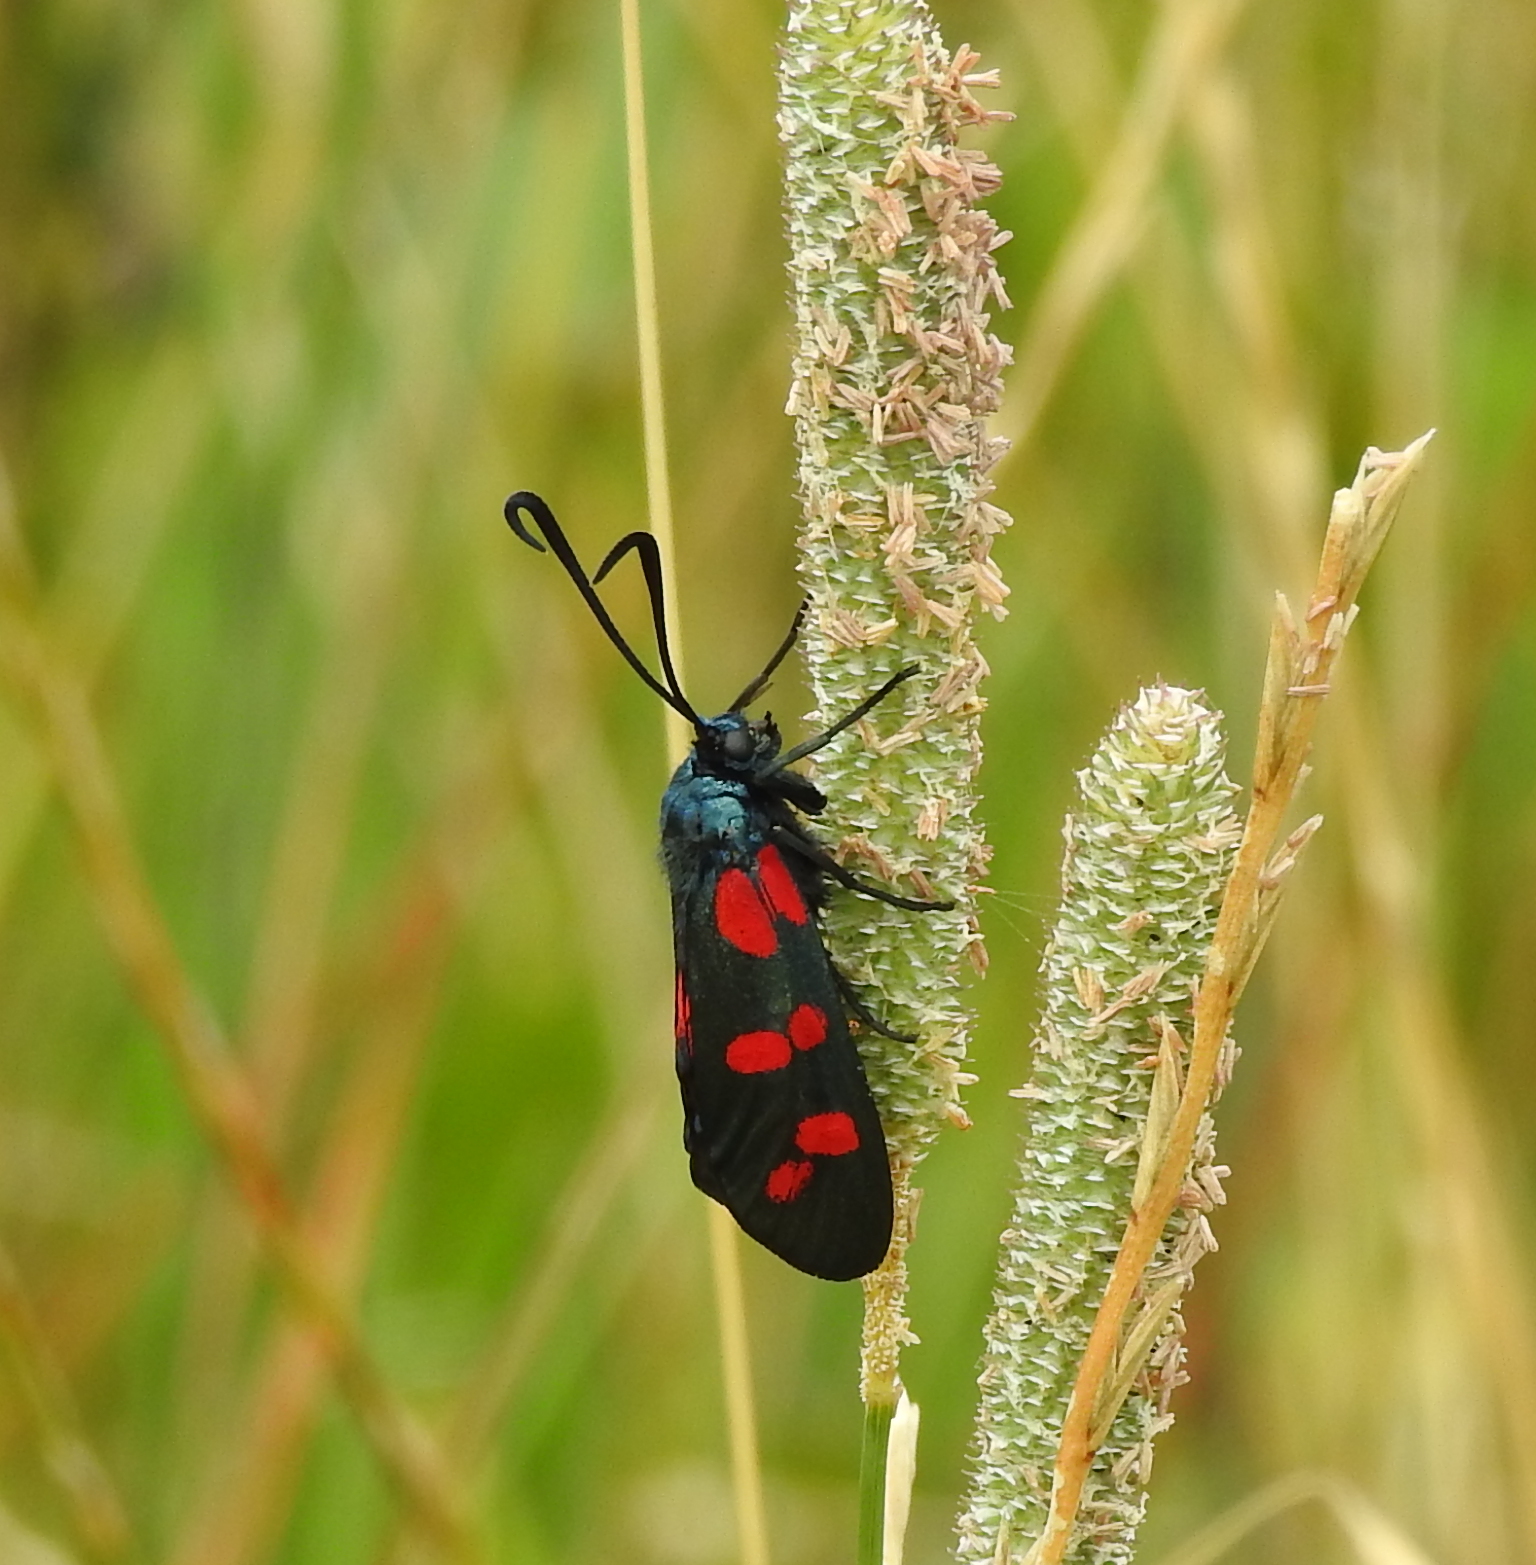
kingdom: Animalia
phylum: Arthropoda
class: Insecta
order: Lepidoptera
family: Zygaenidae
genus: Zygaena
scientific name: Zygaena filipendulae
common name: Six-spot burnet
